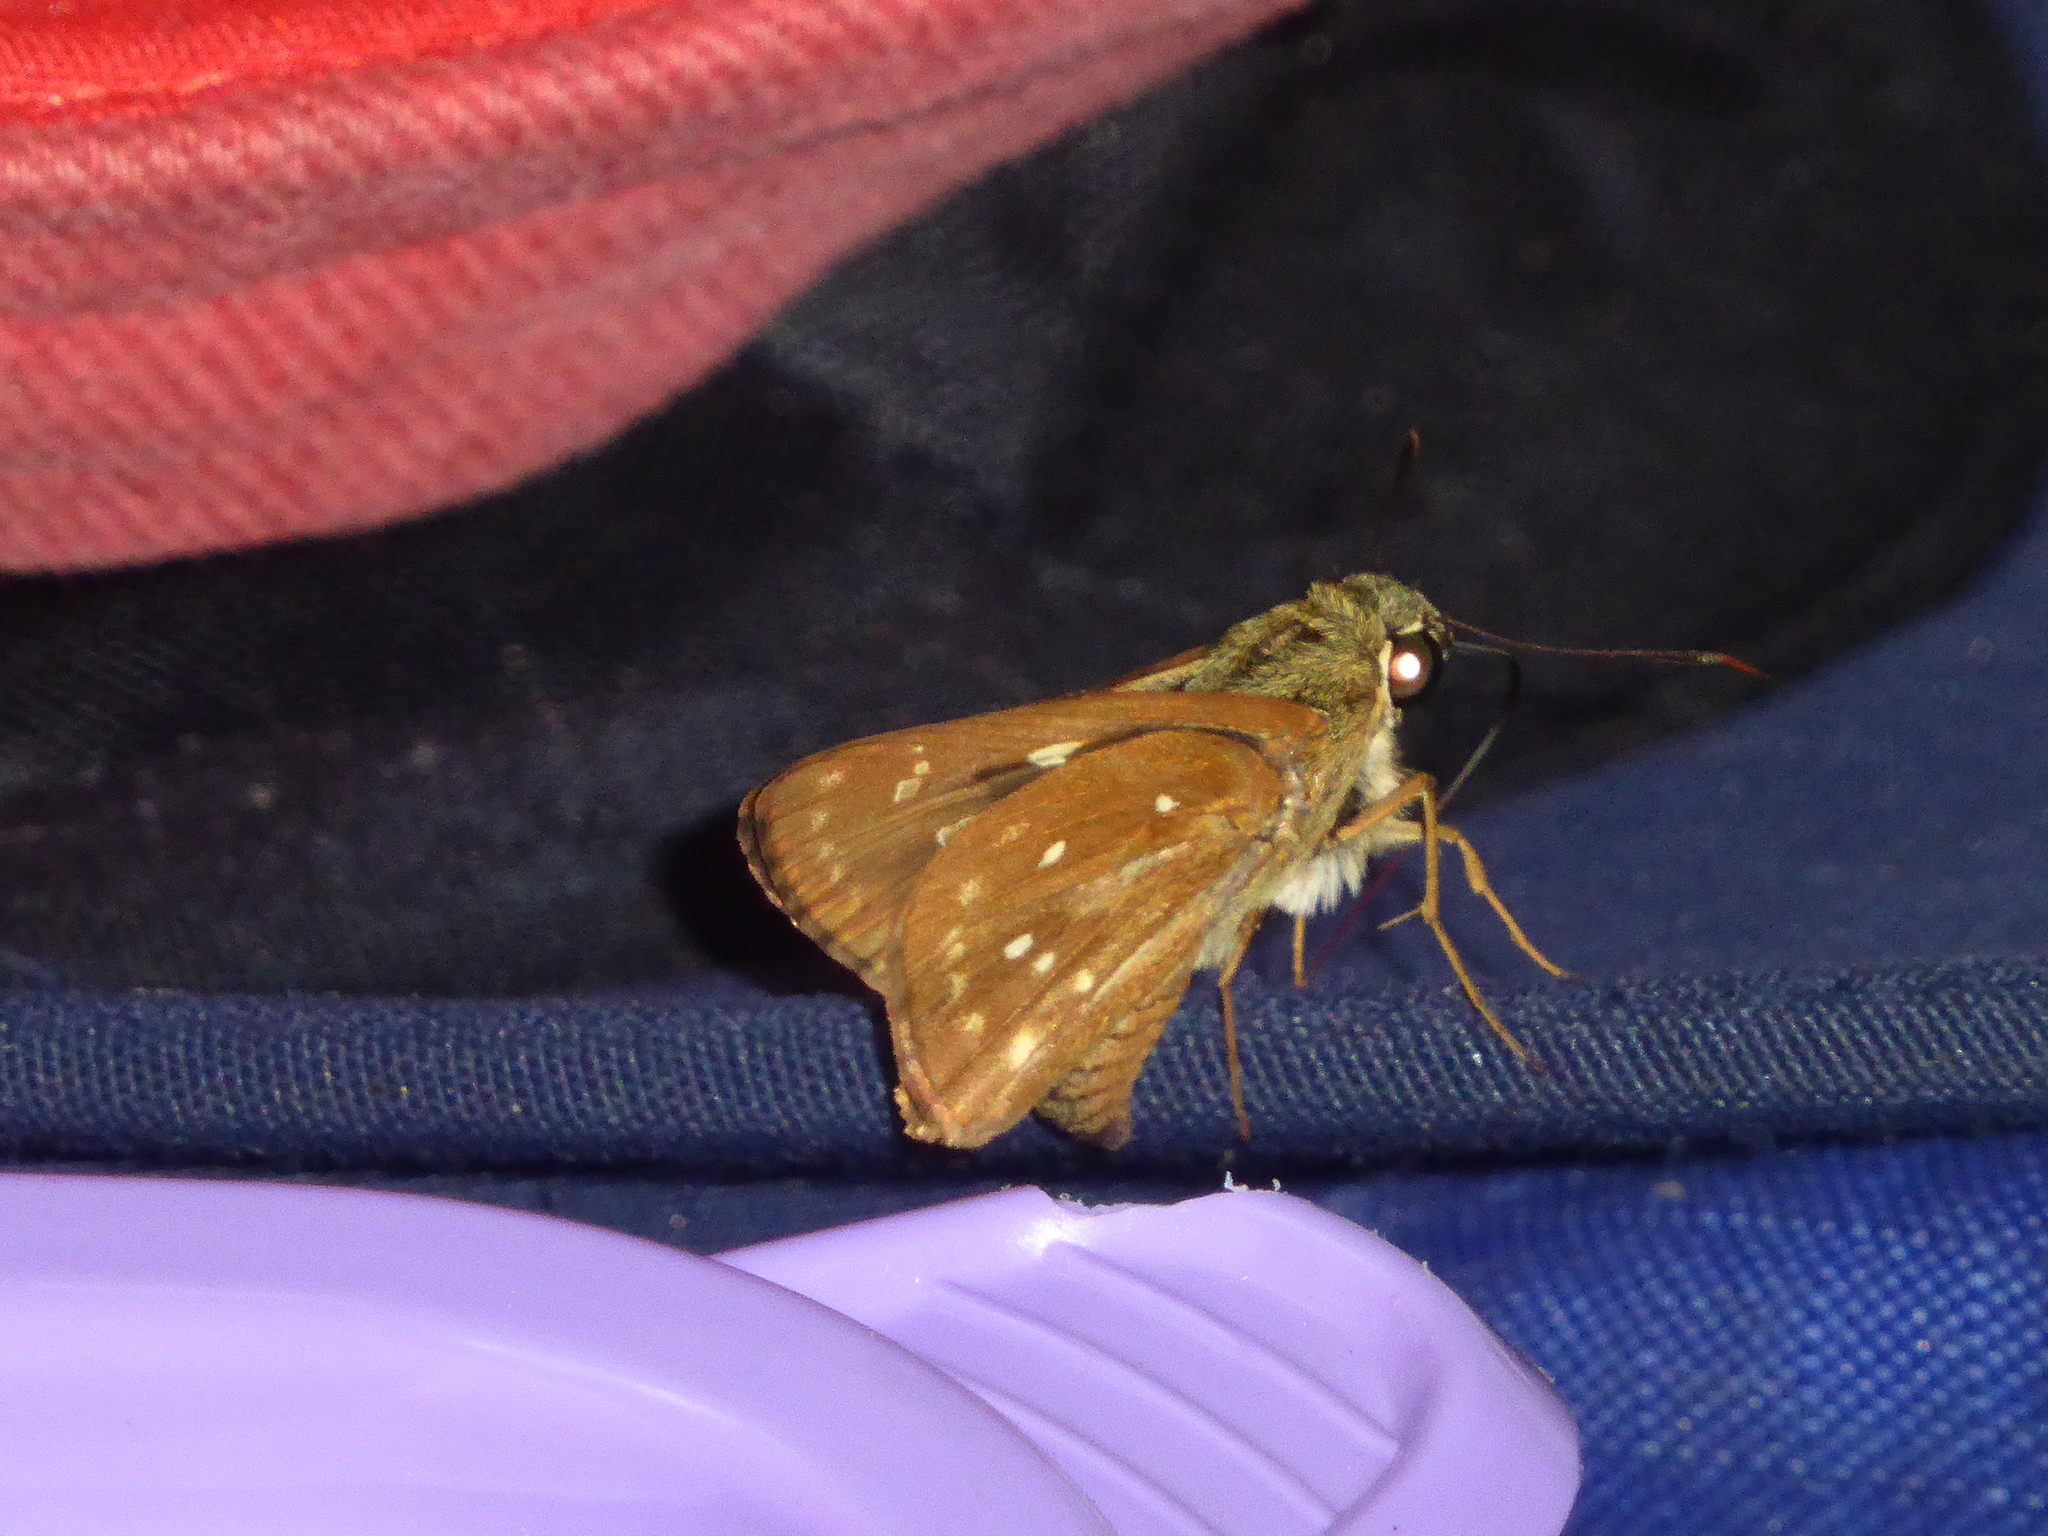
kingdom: Animalia
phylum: Arthropoda
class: Insecta
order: Lepidoptera
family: Hesperiidae
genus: Pithauria
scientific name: Pithauria marsena
